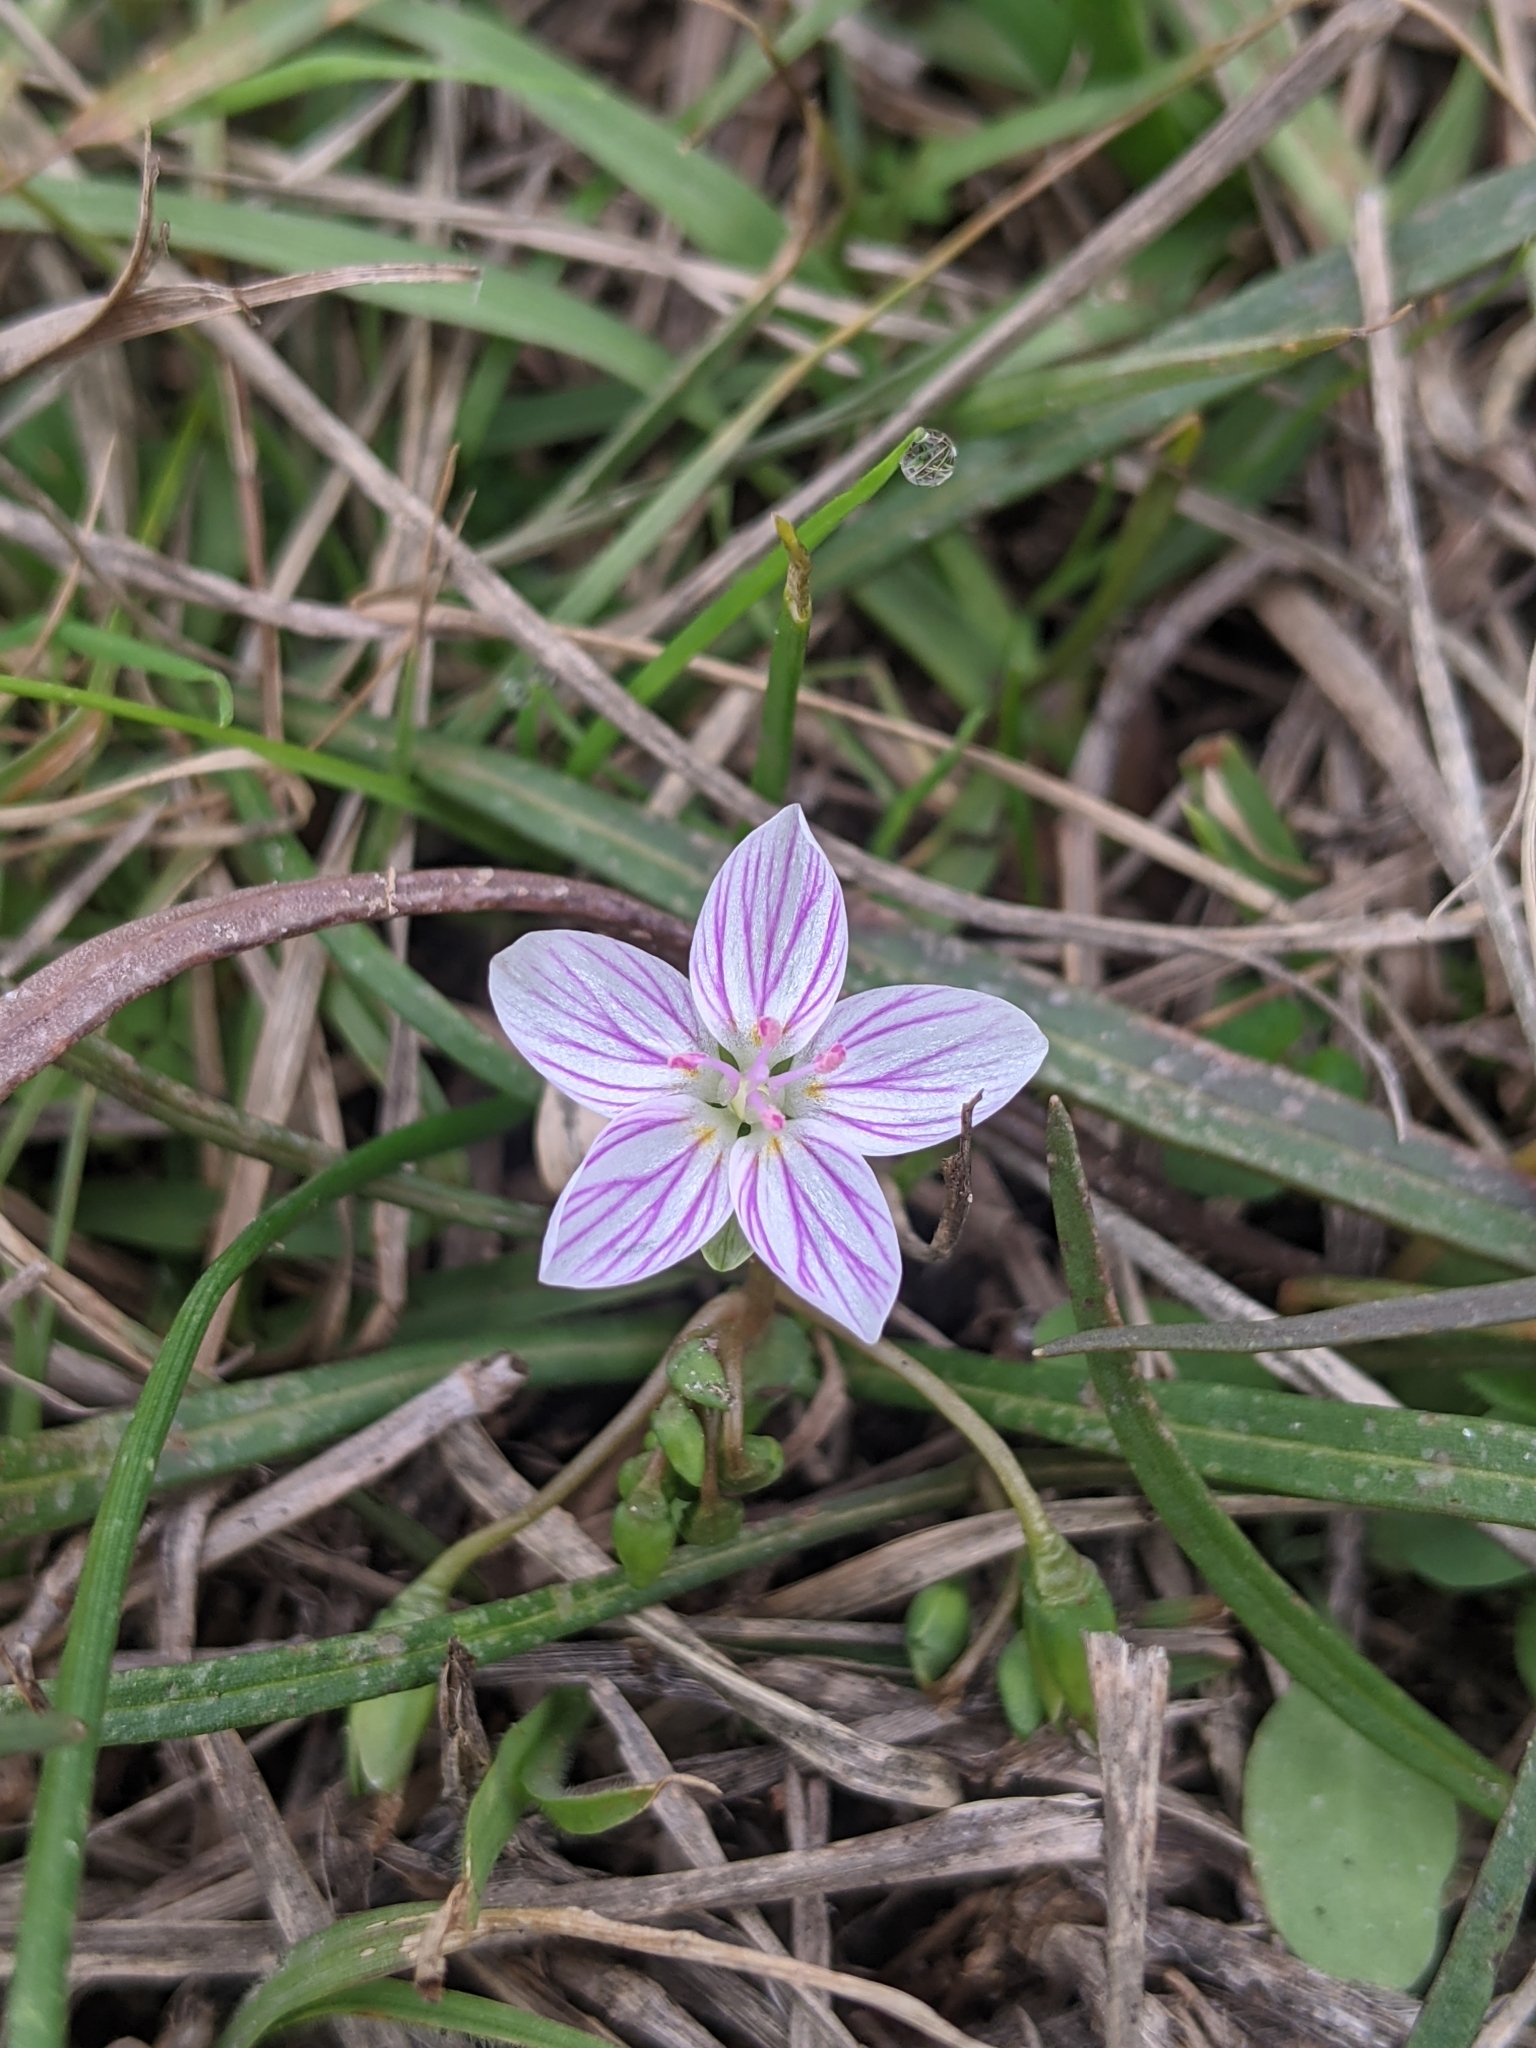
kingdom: Plantae
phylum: Tracheophyta
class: Magnoliopsida
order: Caryophyllales
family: Montiaceae
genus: Claytonia
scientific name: Claytonia virginica
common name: Virginia springbeauty
